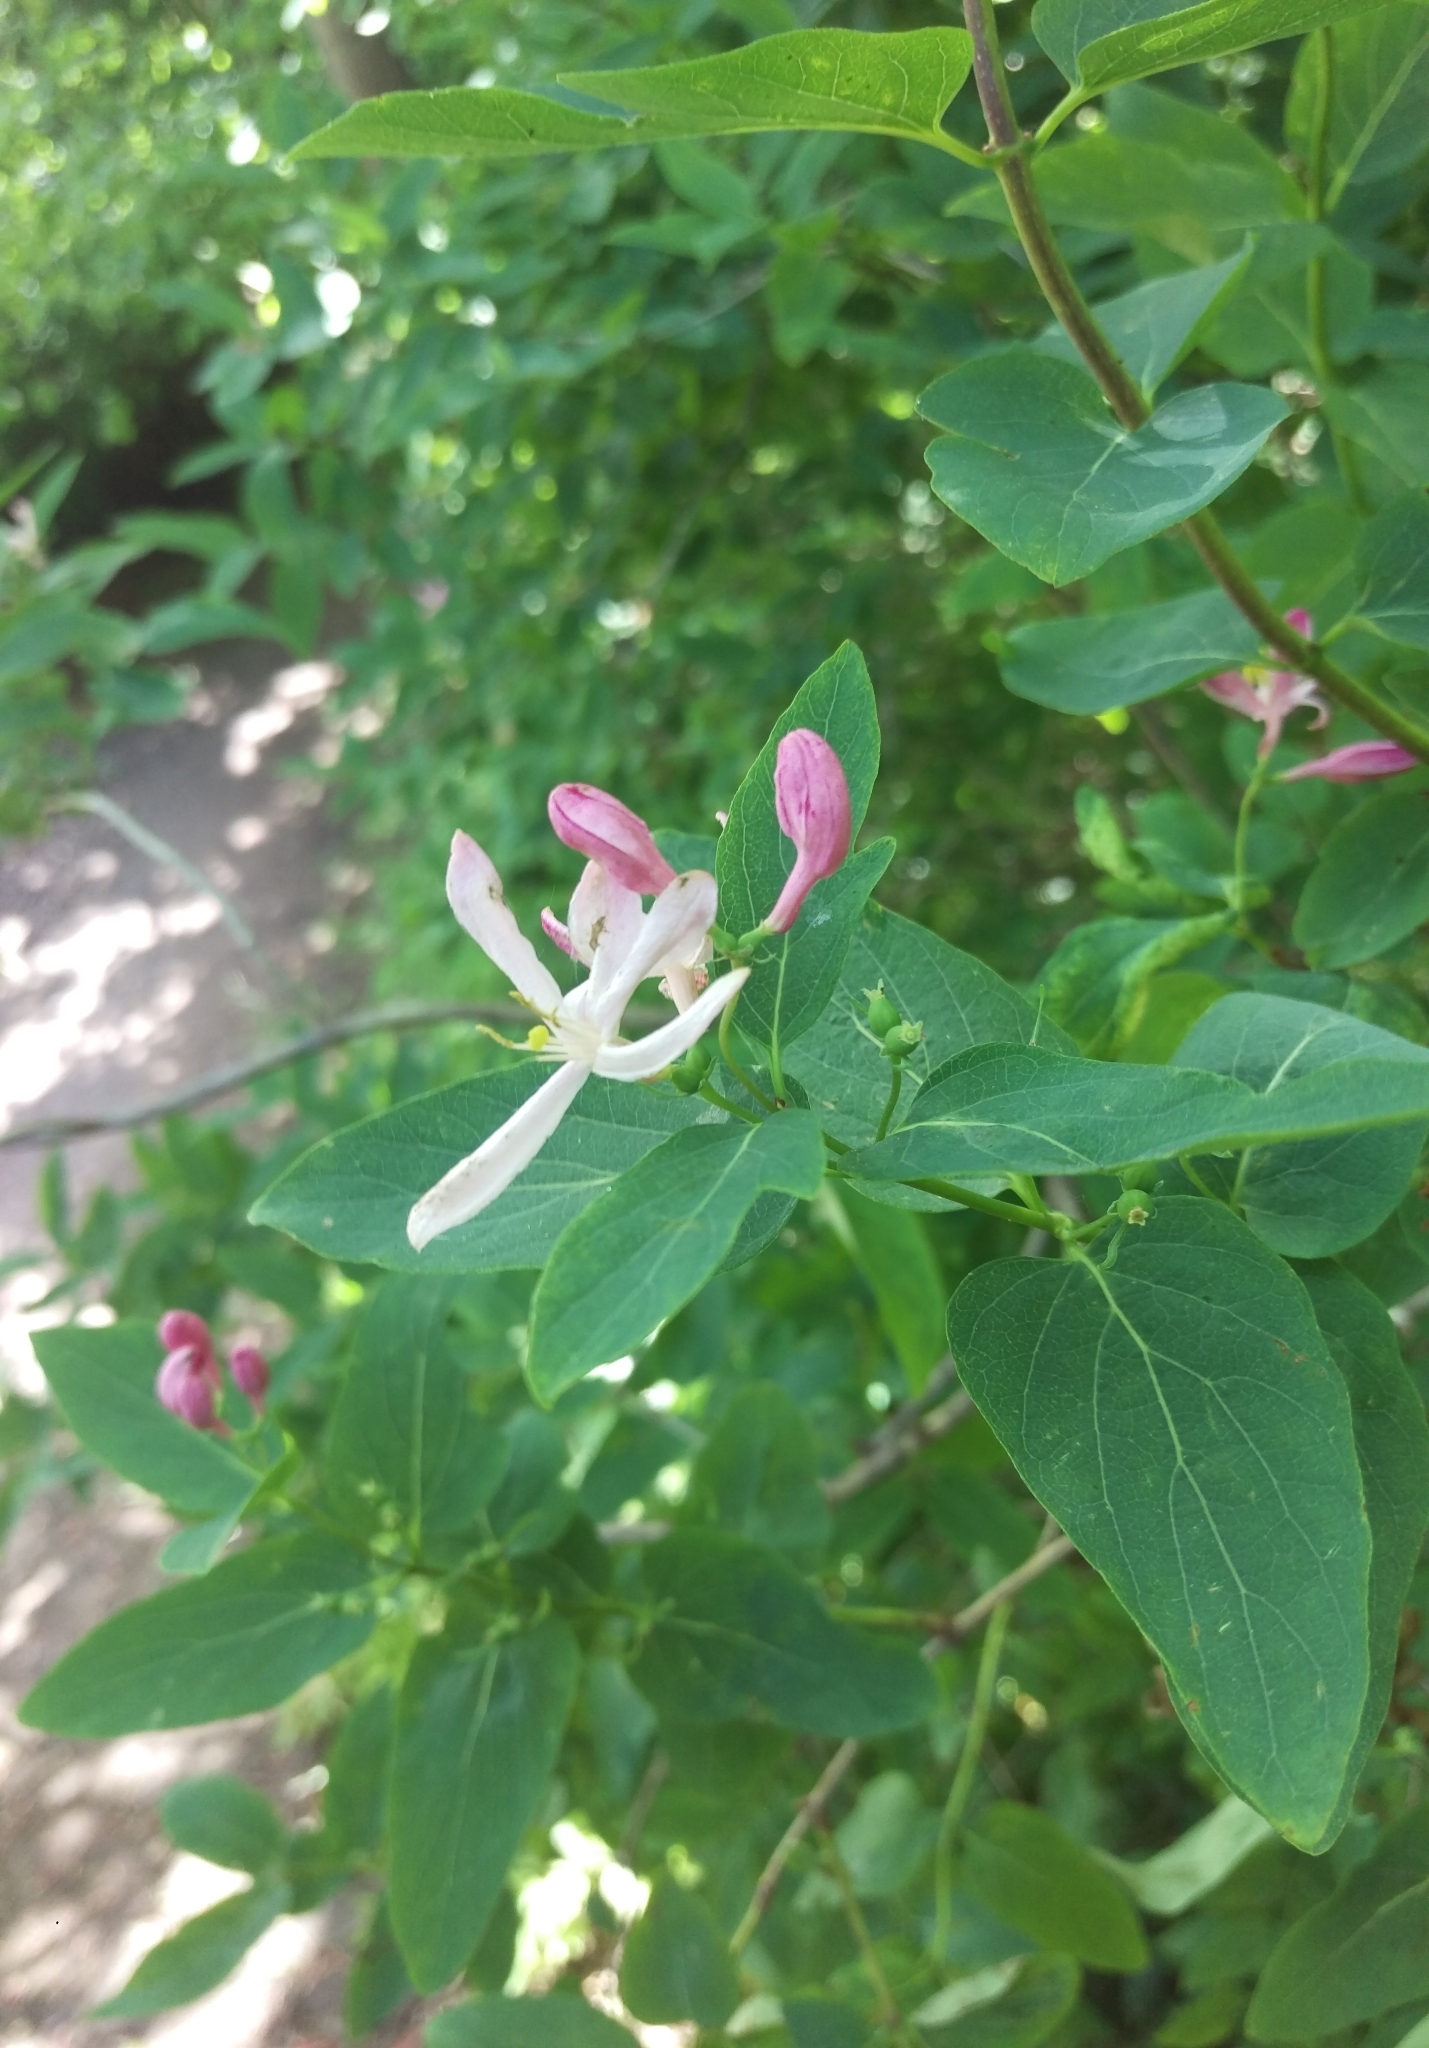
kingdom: Plantae
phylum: Tracheophyta
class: Magnoliopsida
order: Dipsacales
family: Caprifoliaceae
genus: Lonicera
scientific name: Lonicera tatarica
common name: Tatarian honeysuckle
